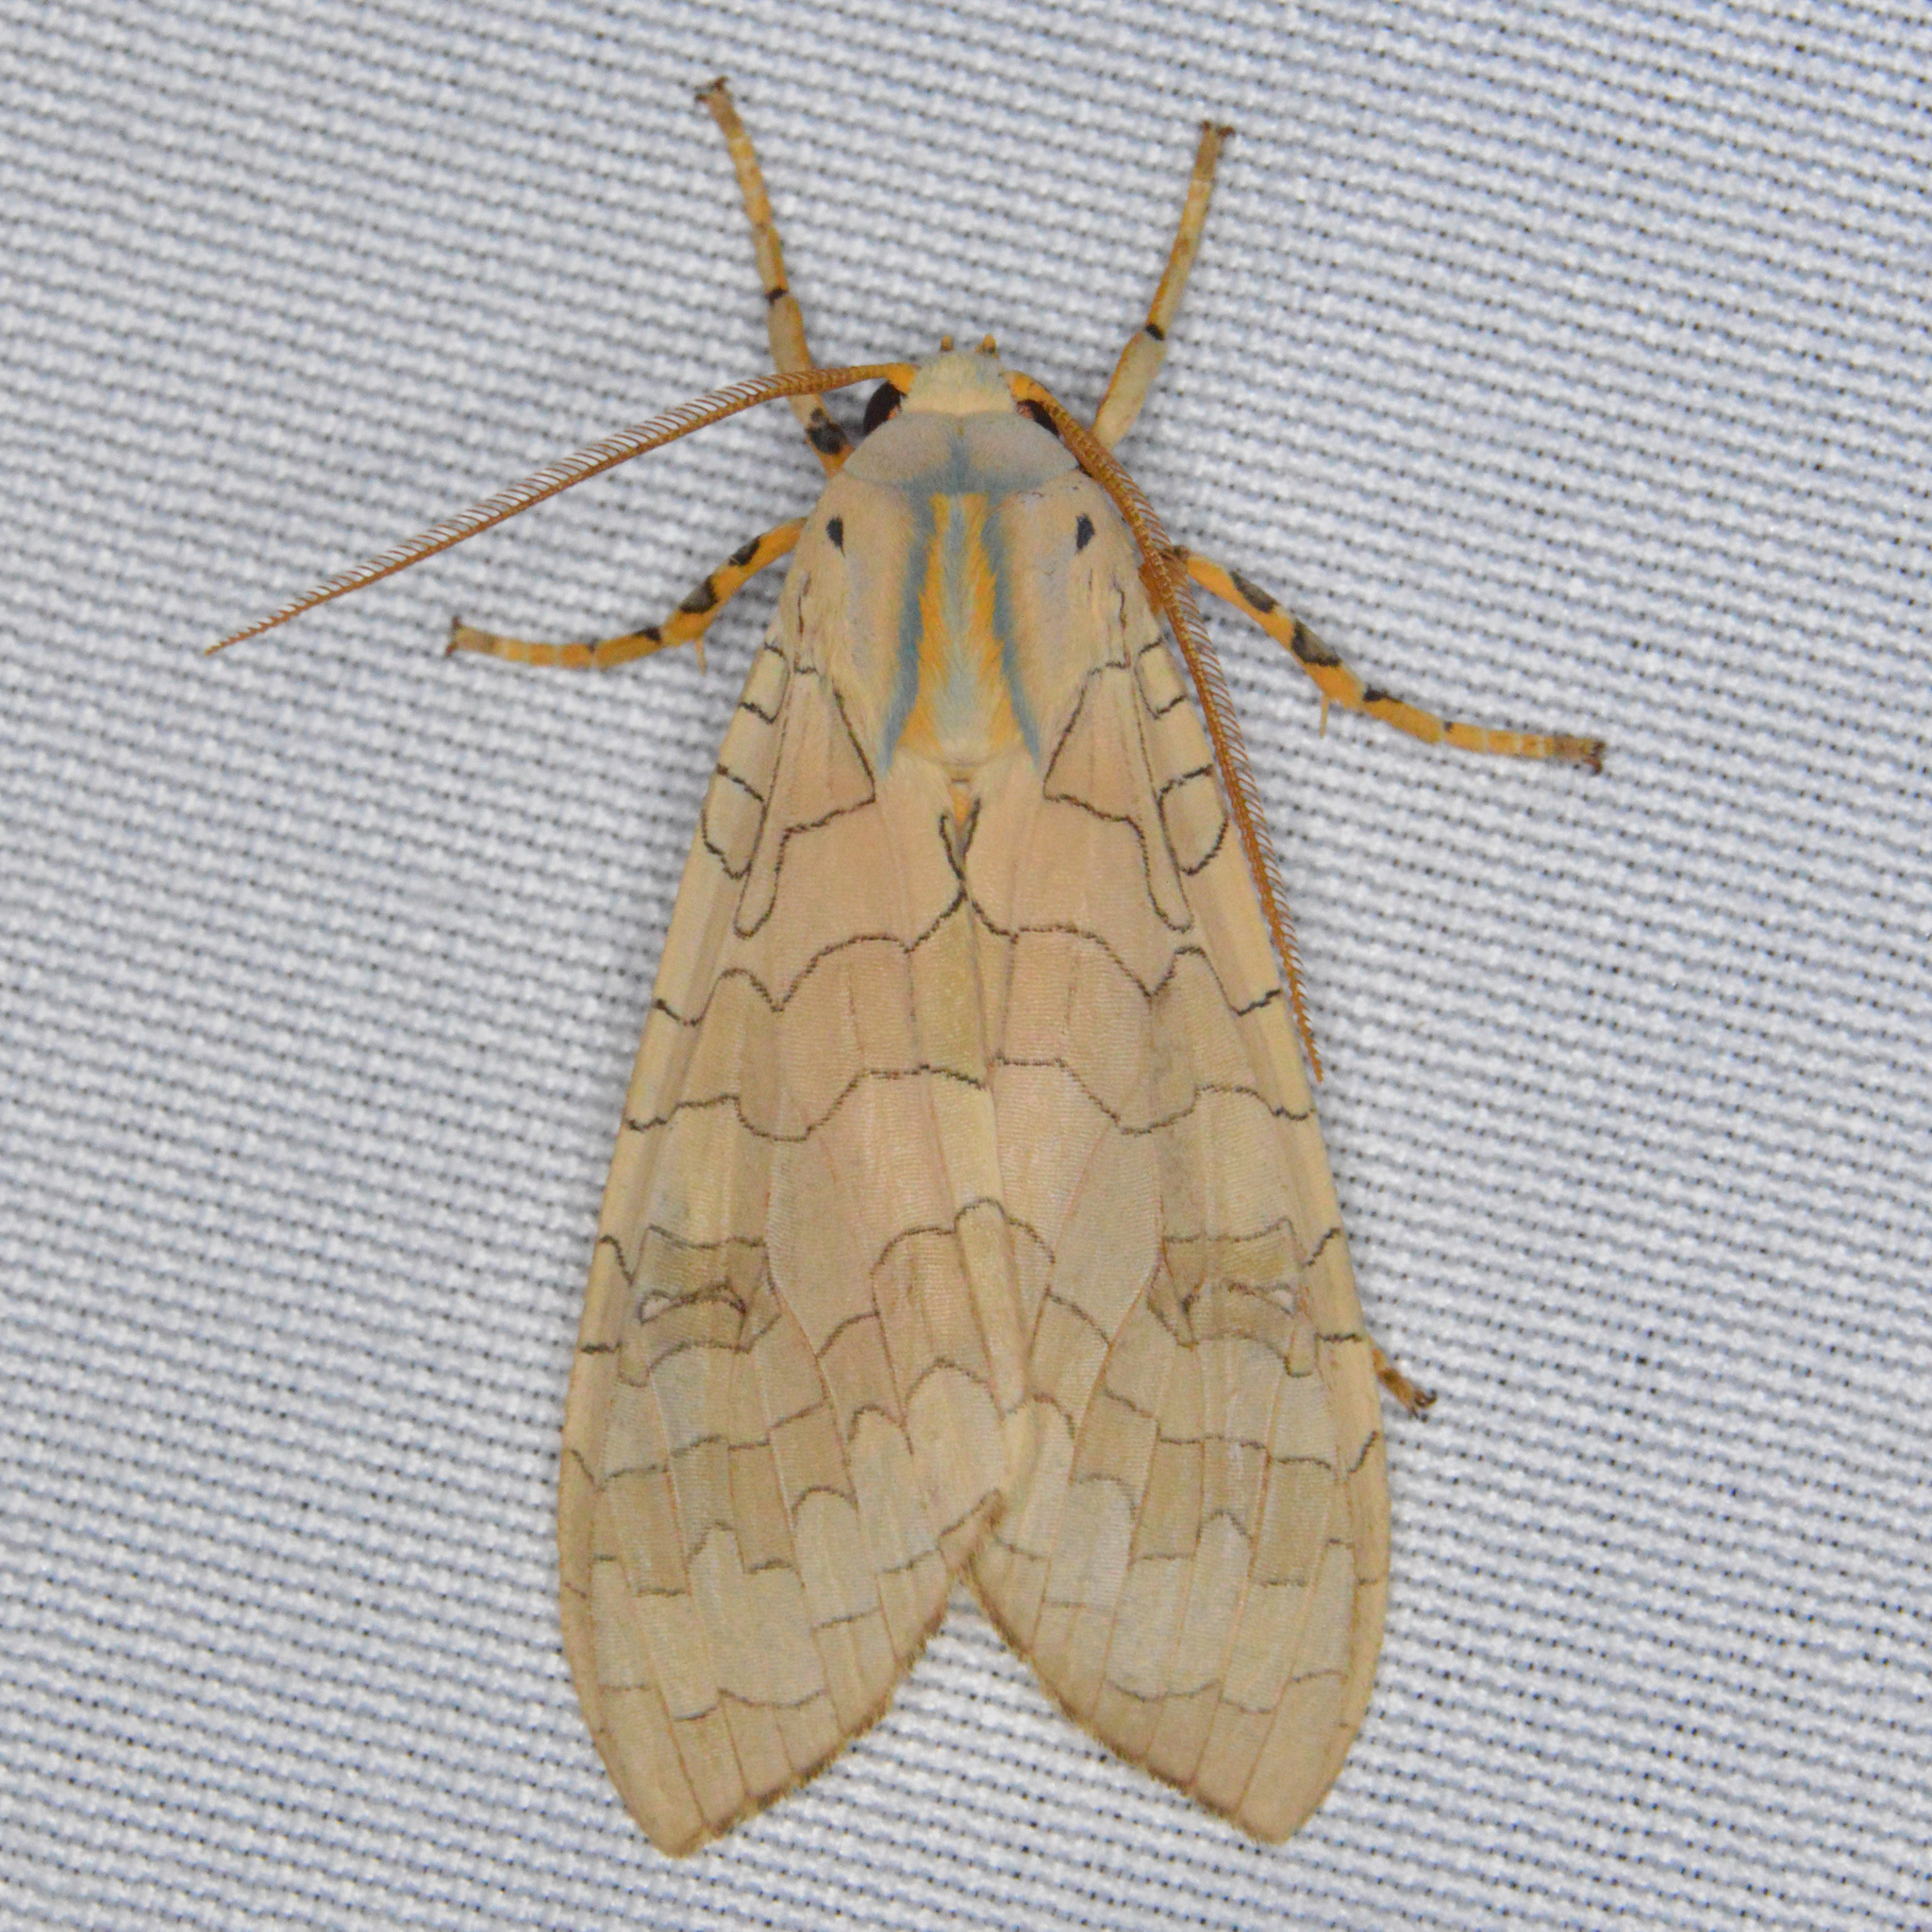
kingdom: Animalia
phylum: Arthropoda
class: Insecta
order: Lepidoptera
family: Erebidae
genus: Halysidota
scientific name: Halysidota
